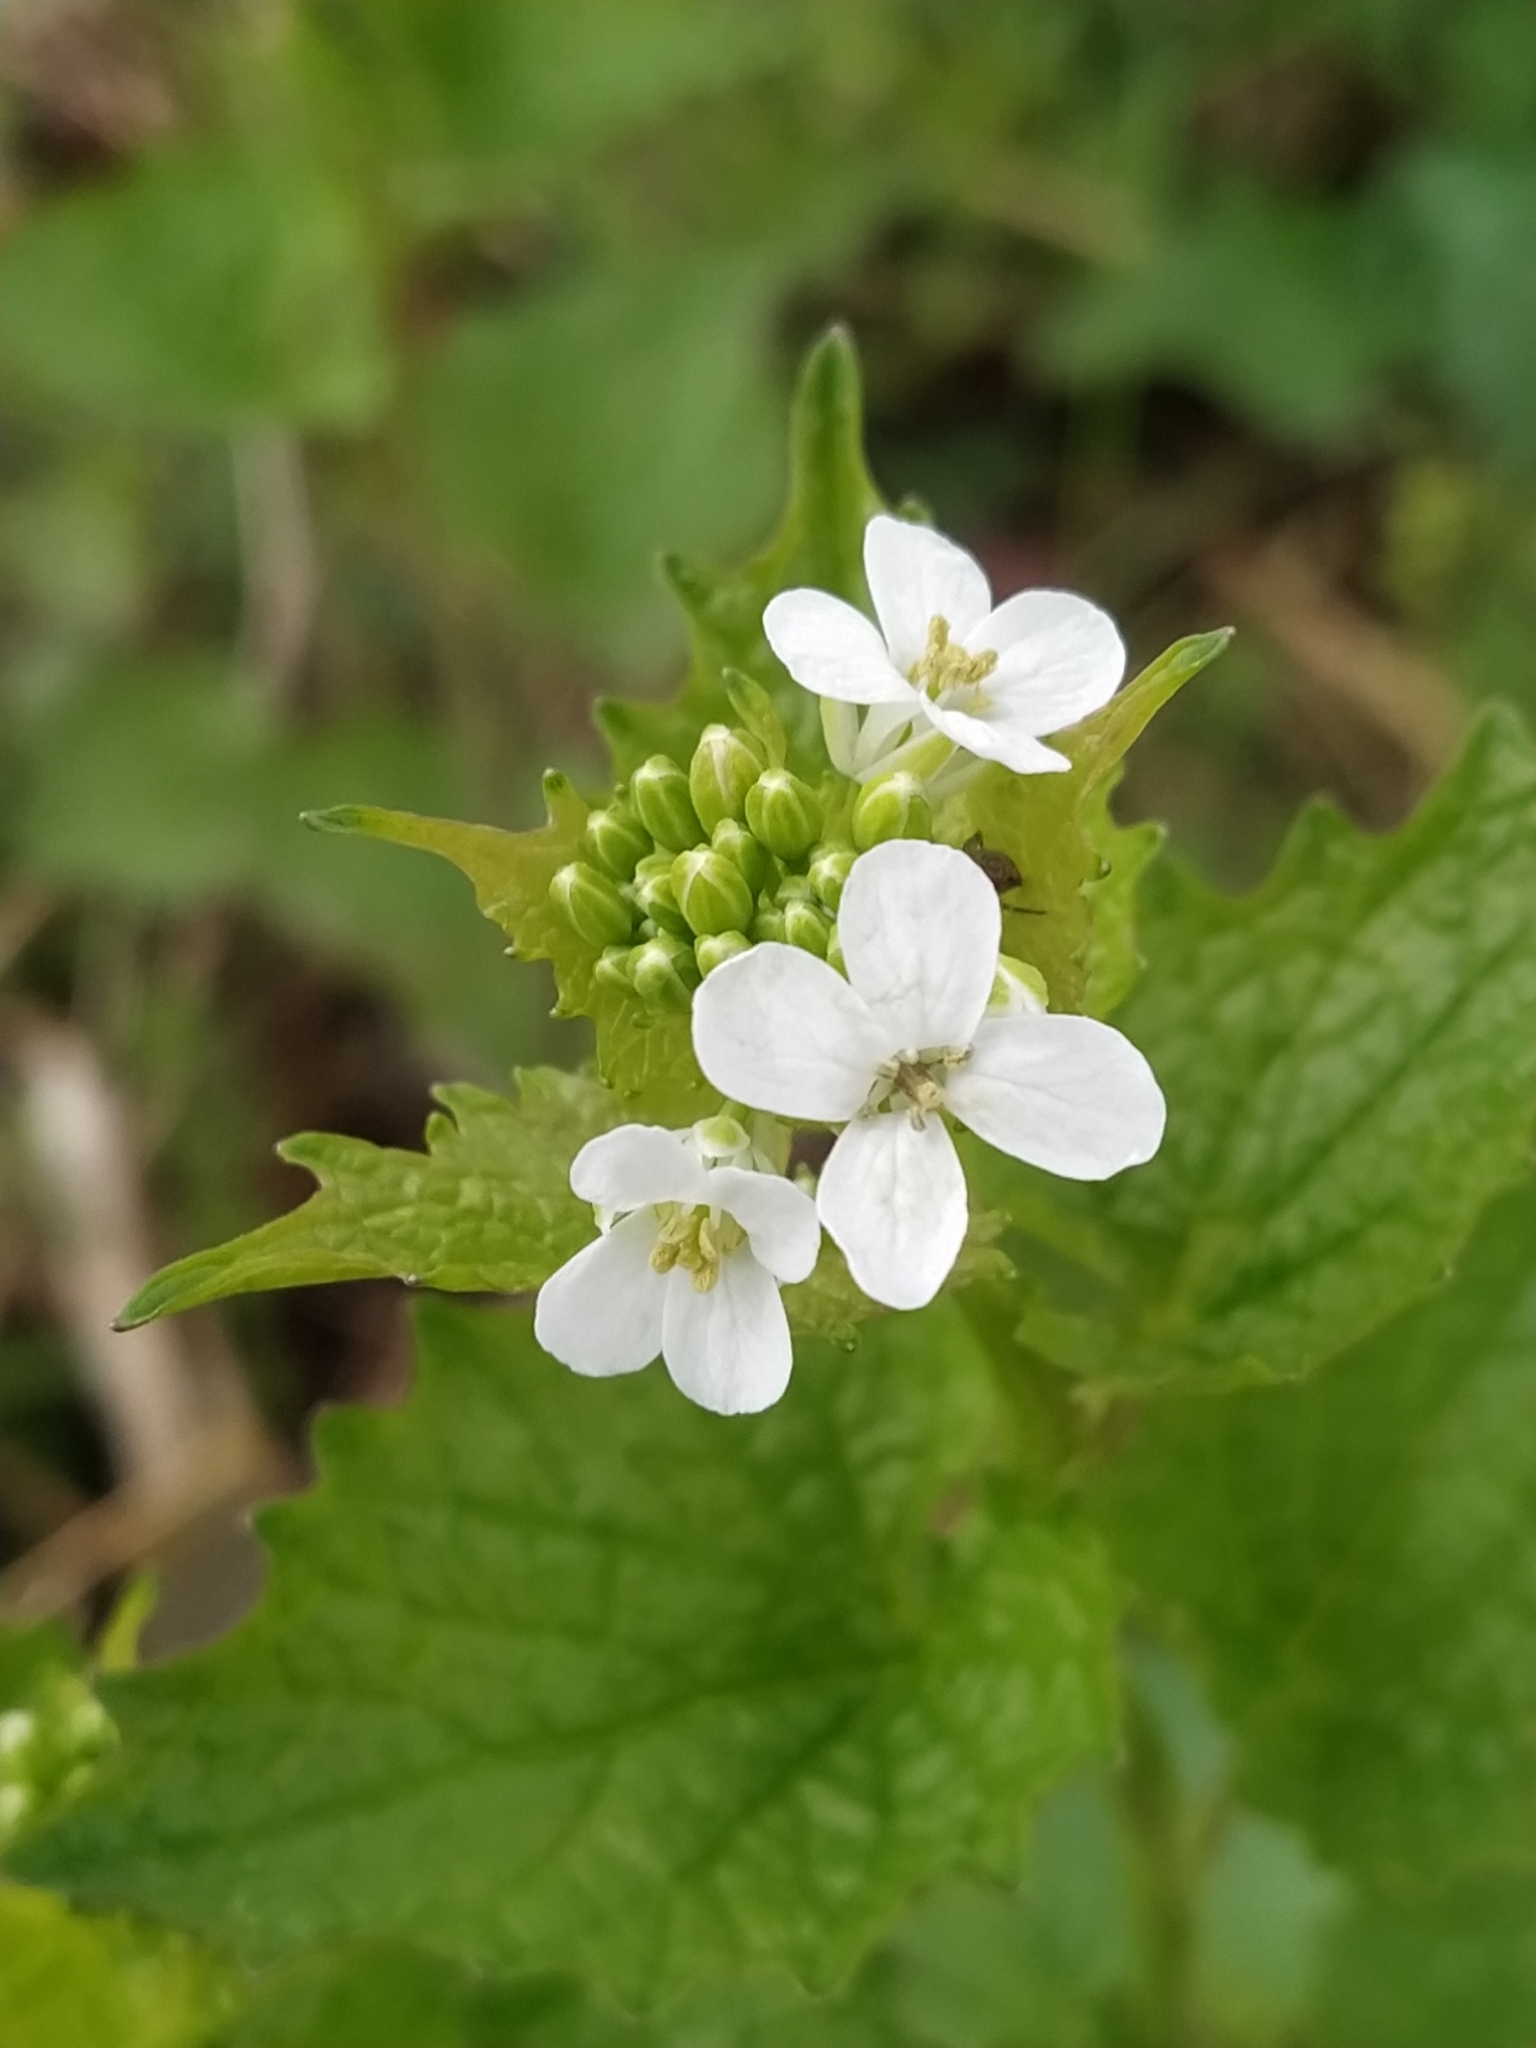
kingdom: Plantae
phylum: Tracheophyta
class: Magnoliopsida
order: Brassicales
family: Brassicaceae
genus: Alliaria
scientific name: Alliaria petiolata
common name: Garlic mustard
